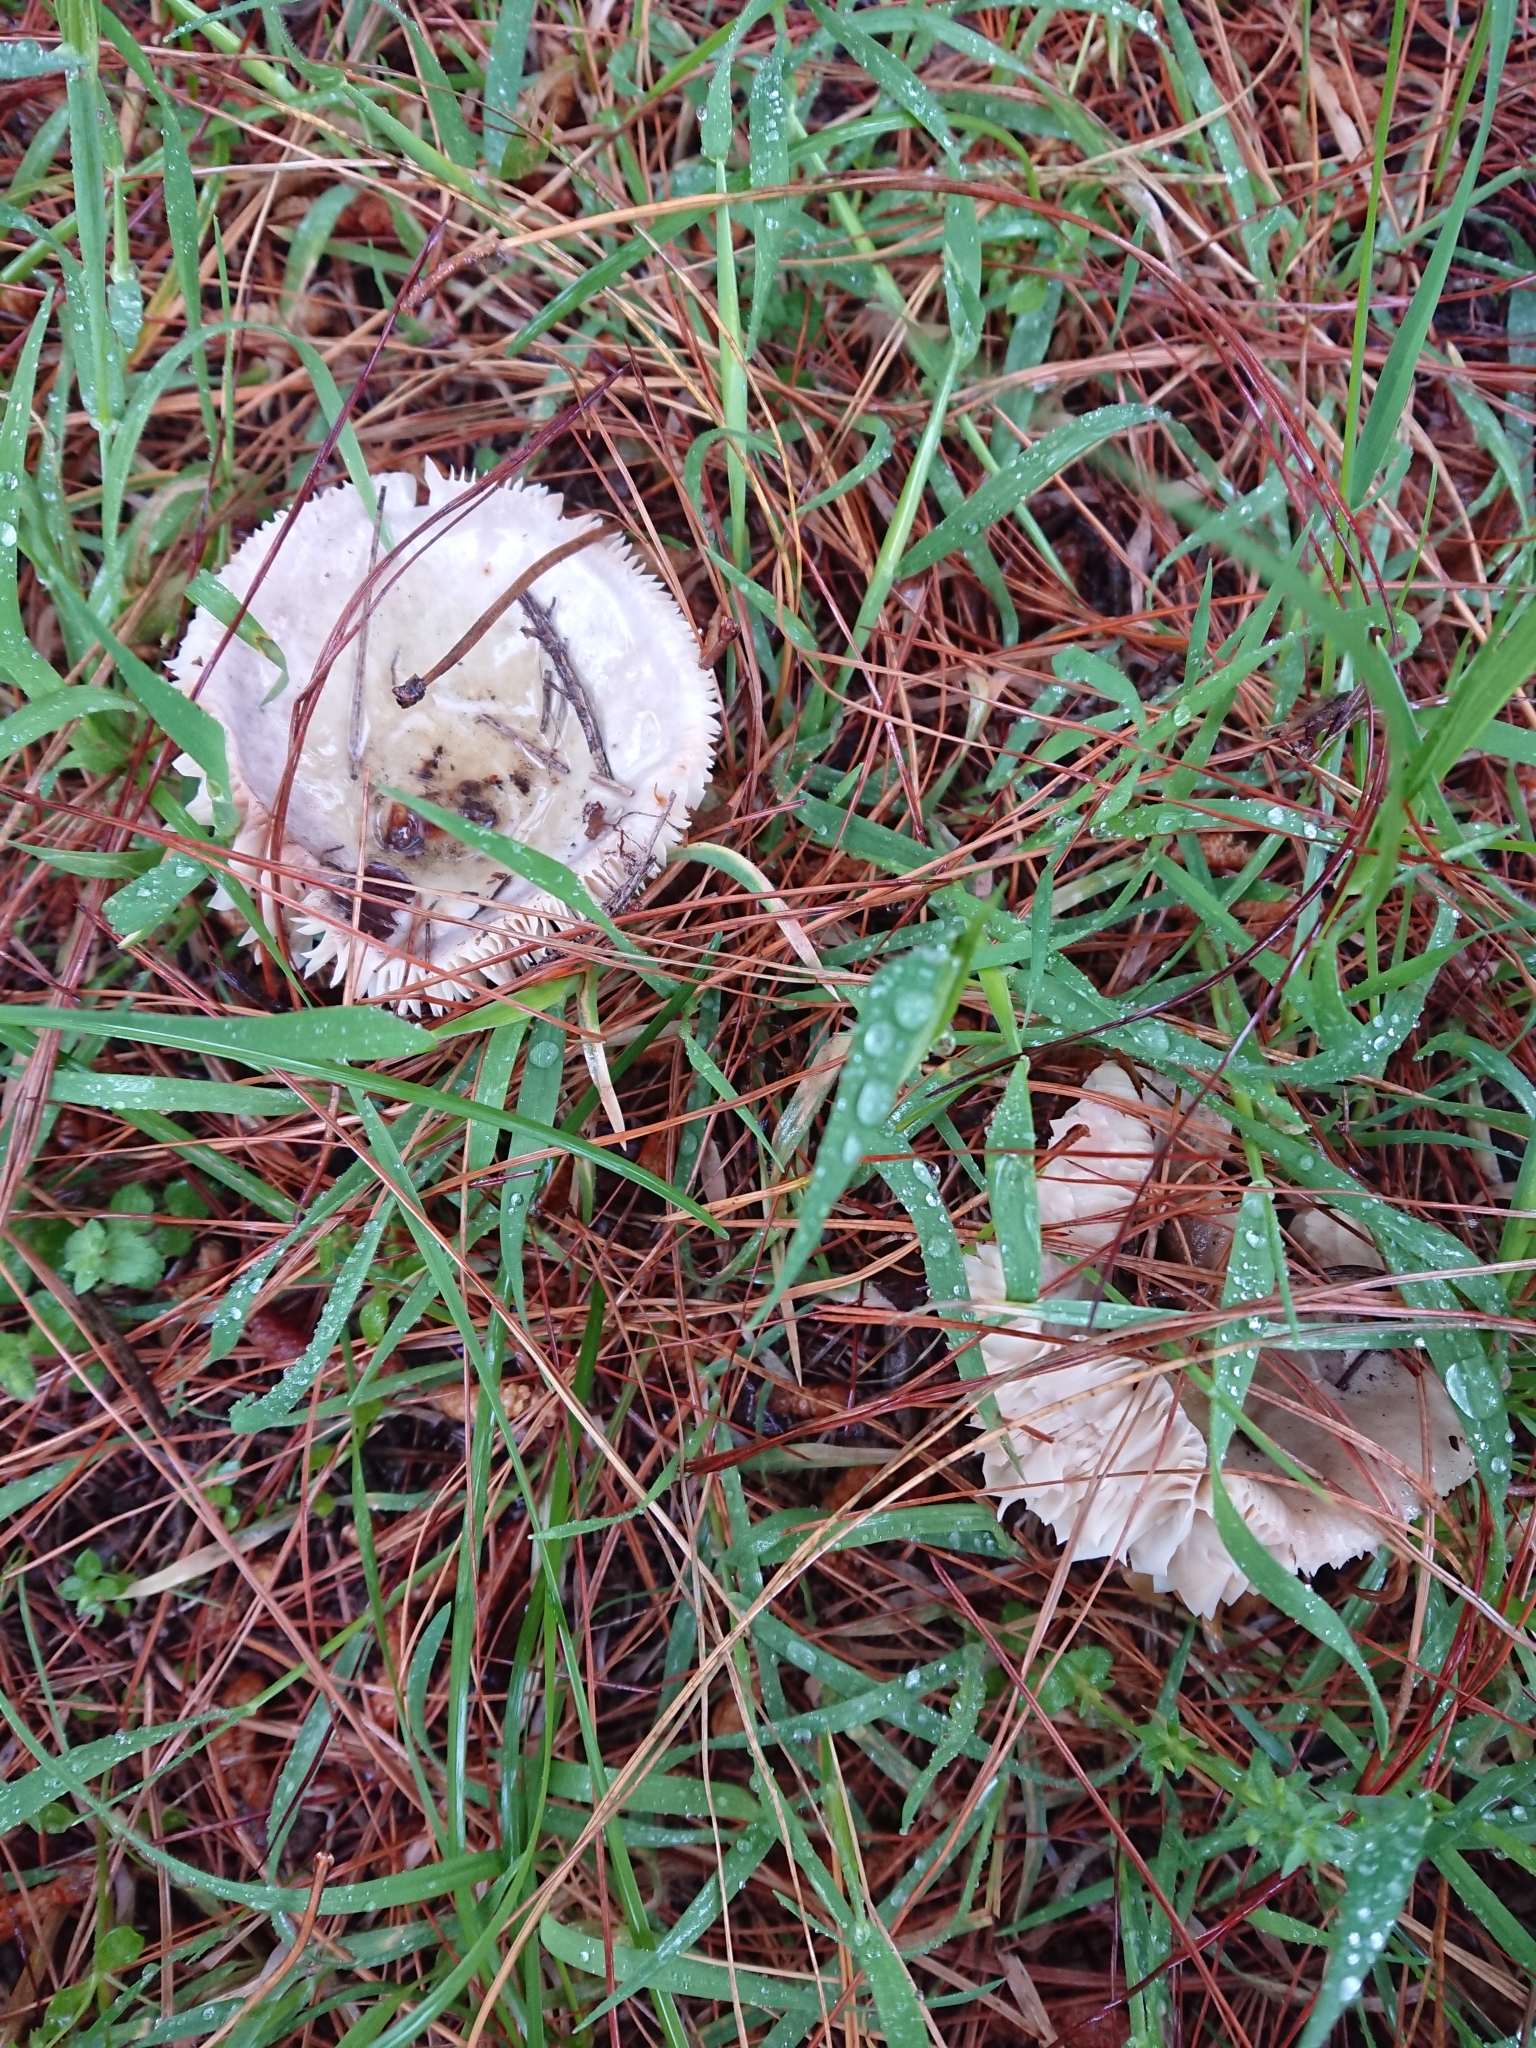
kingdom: Fungi
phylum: Basidiomycota
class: Agaricomycetes
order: Russulales
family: Russulaceae
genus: Russula
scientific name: Russula grisea
